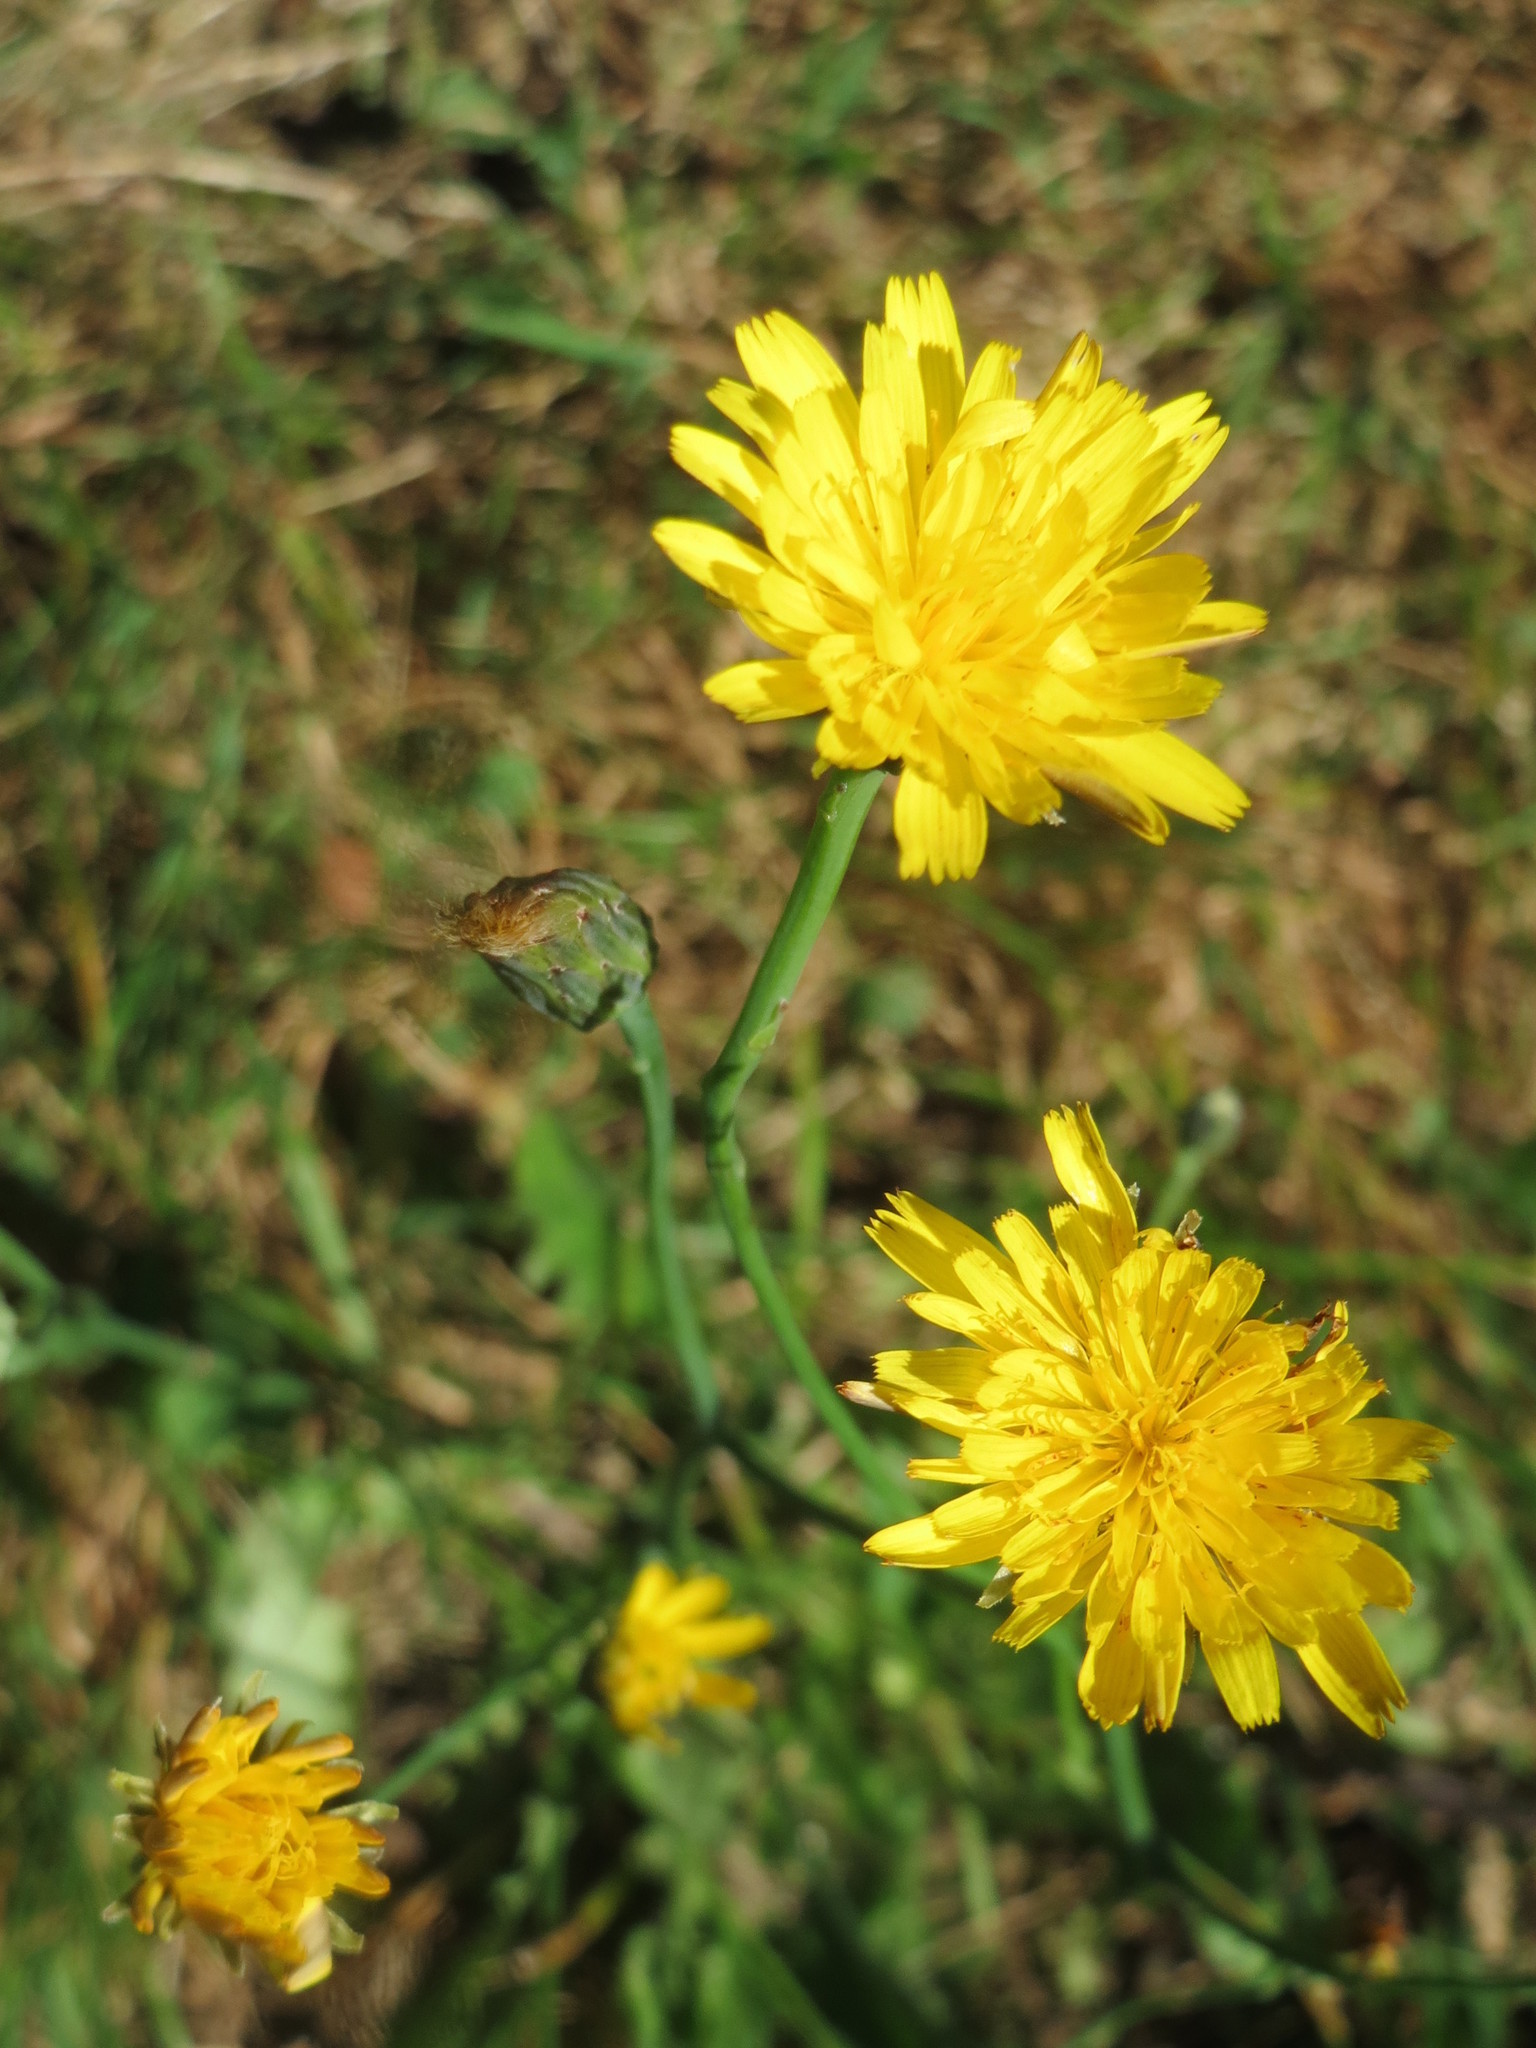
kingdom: Plantae
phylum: Tracheophyta
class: Magnoliopsida
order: Asterales
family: Asteraceae
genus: Hypochaeris
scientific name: Hypochaeris radicata
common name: Flatweed
